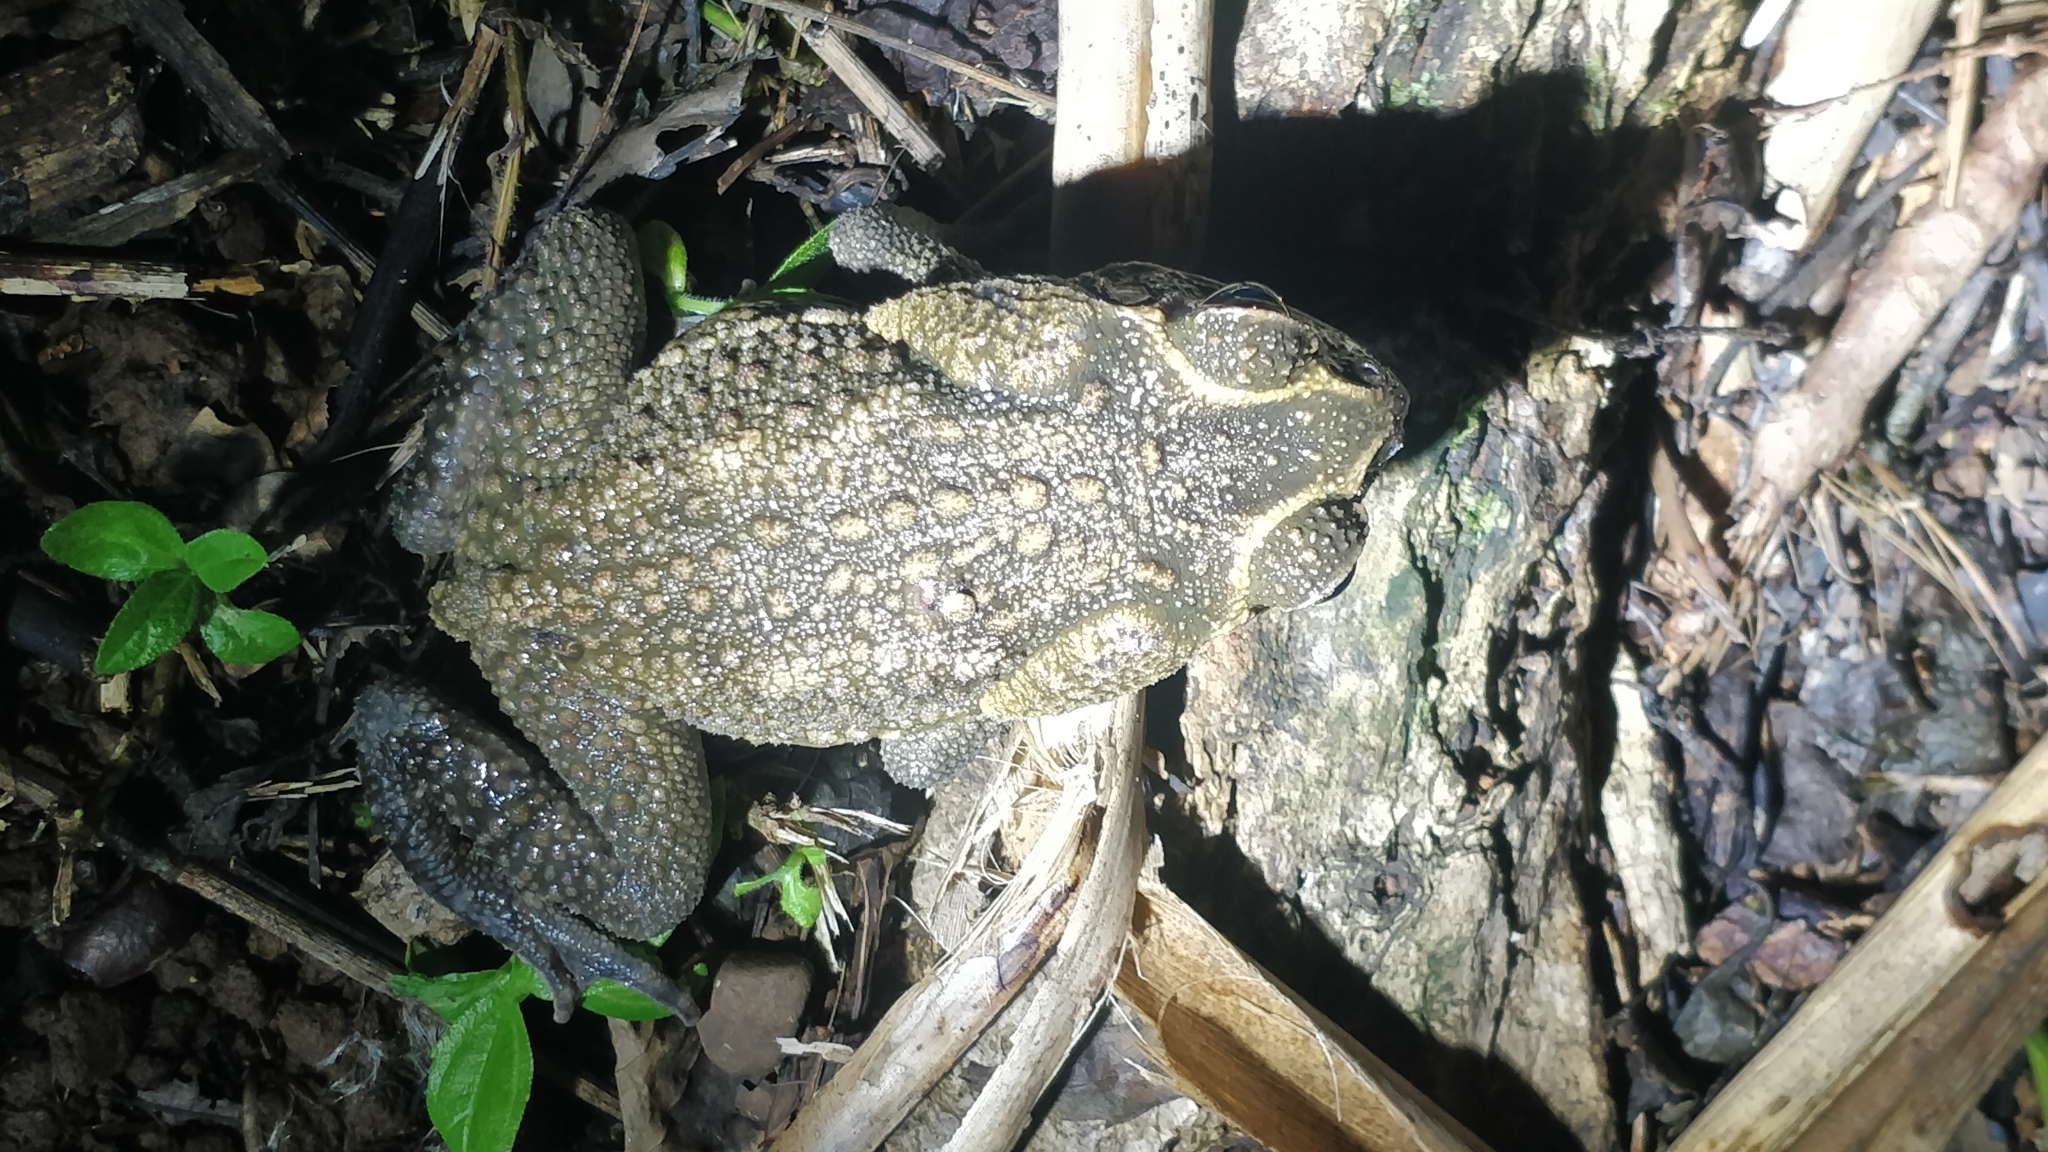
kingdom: Animalia
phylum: Chordata
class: Amphibia
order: Anura
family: Bufonidae
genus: Rhinella
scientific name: Rhinella horribilis
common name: Mesoamerican cane toad
